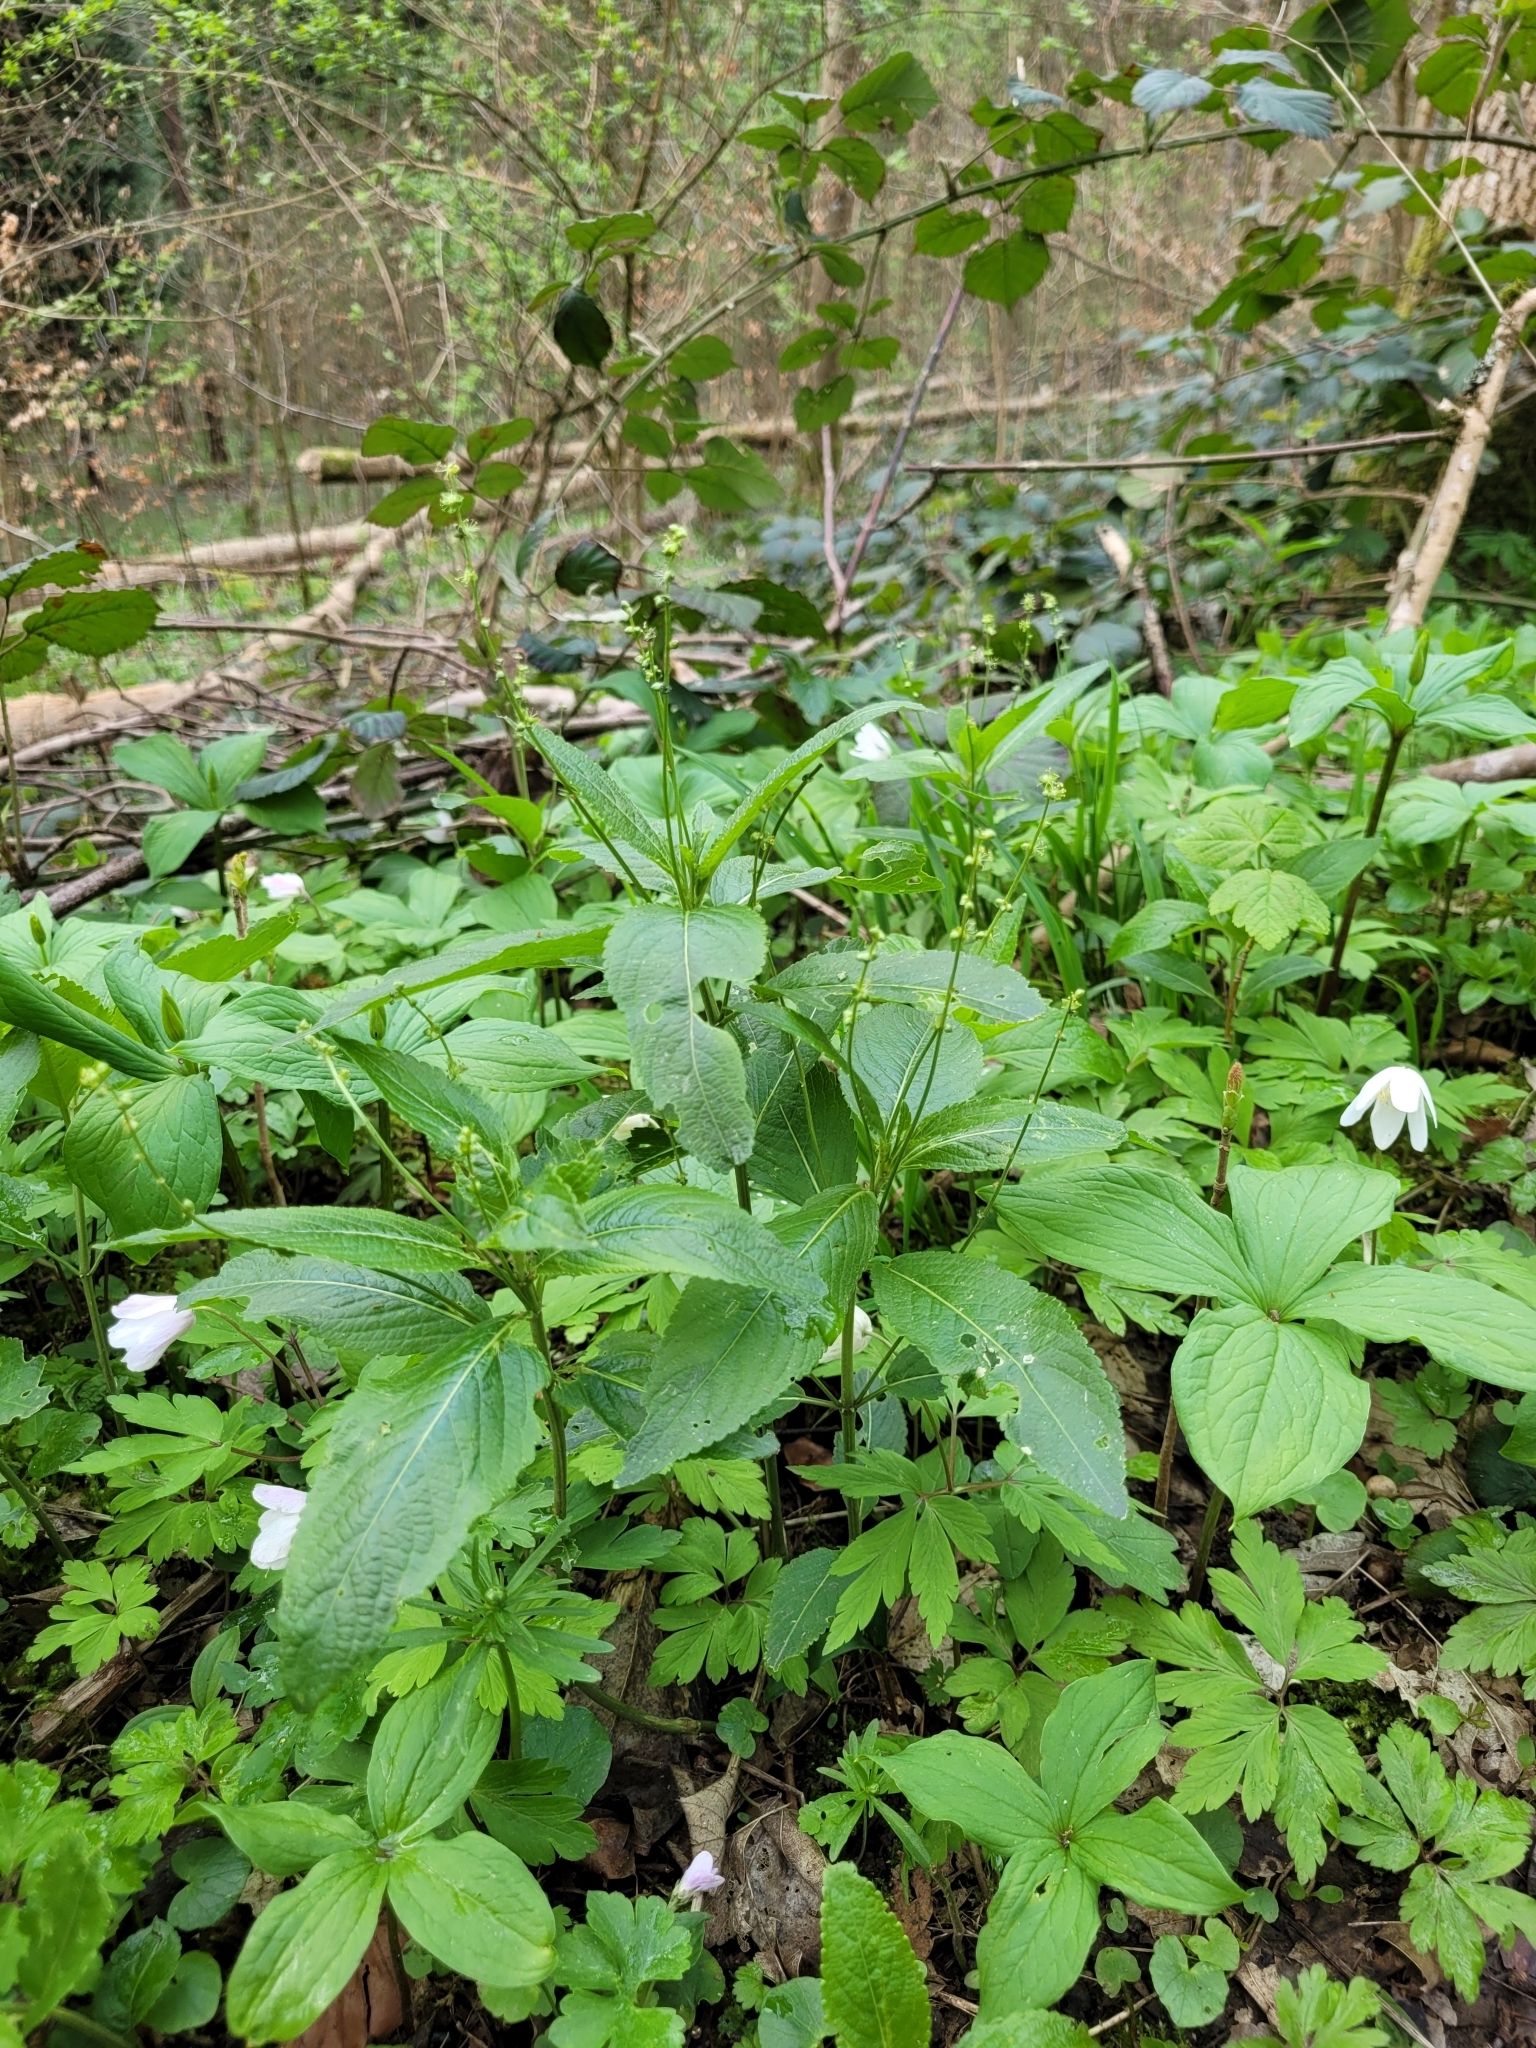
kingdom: Plantae
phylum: Tracheophyta
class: Magnoliopsida
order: Malpighiales
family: Euphorbiaceae
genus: Mercurialis
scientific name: Mercurialis perennis
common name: Dog mercury
